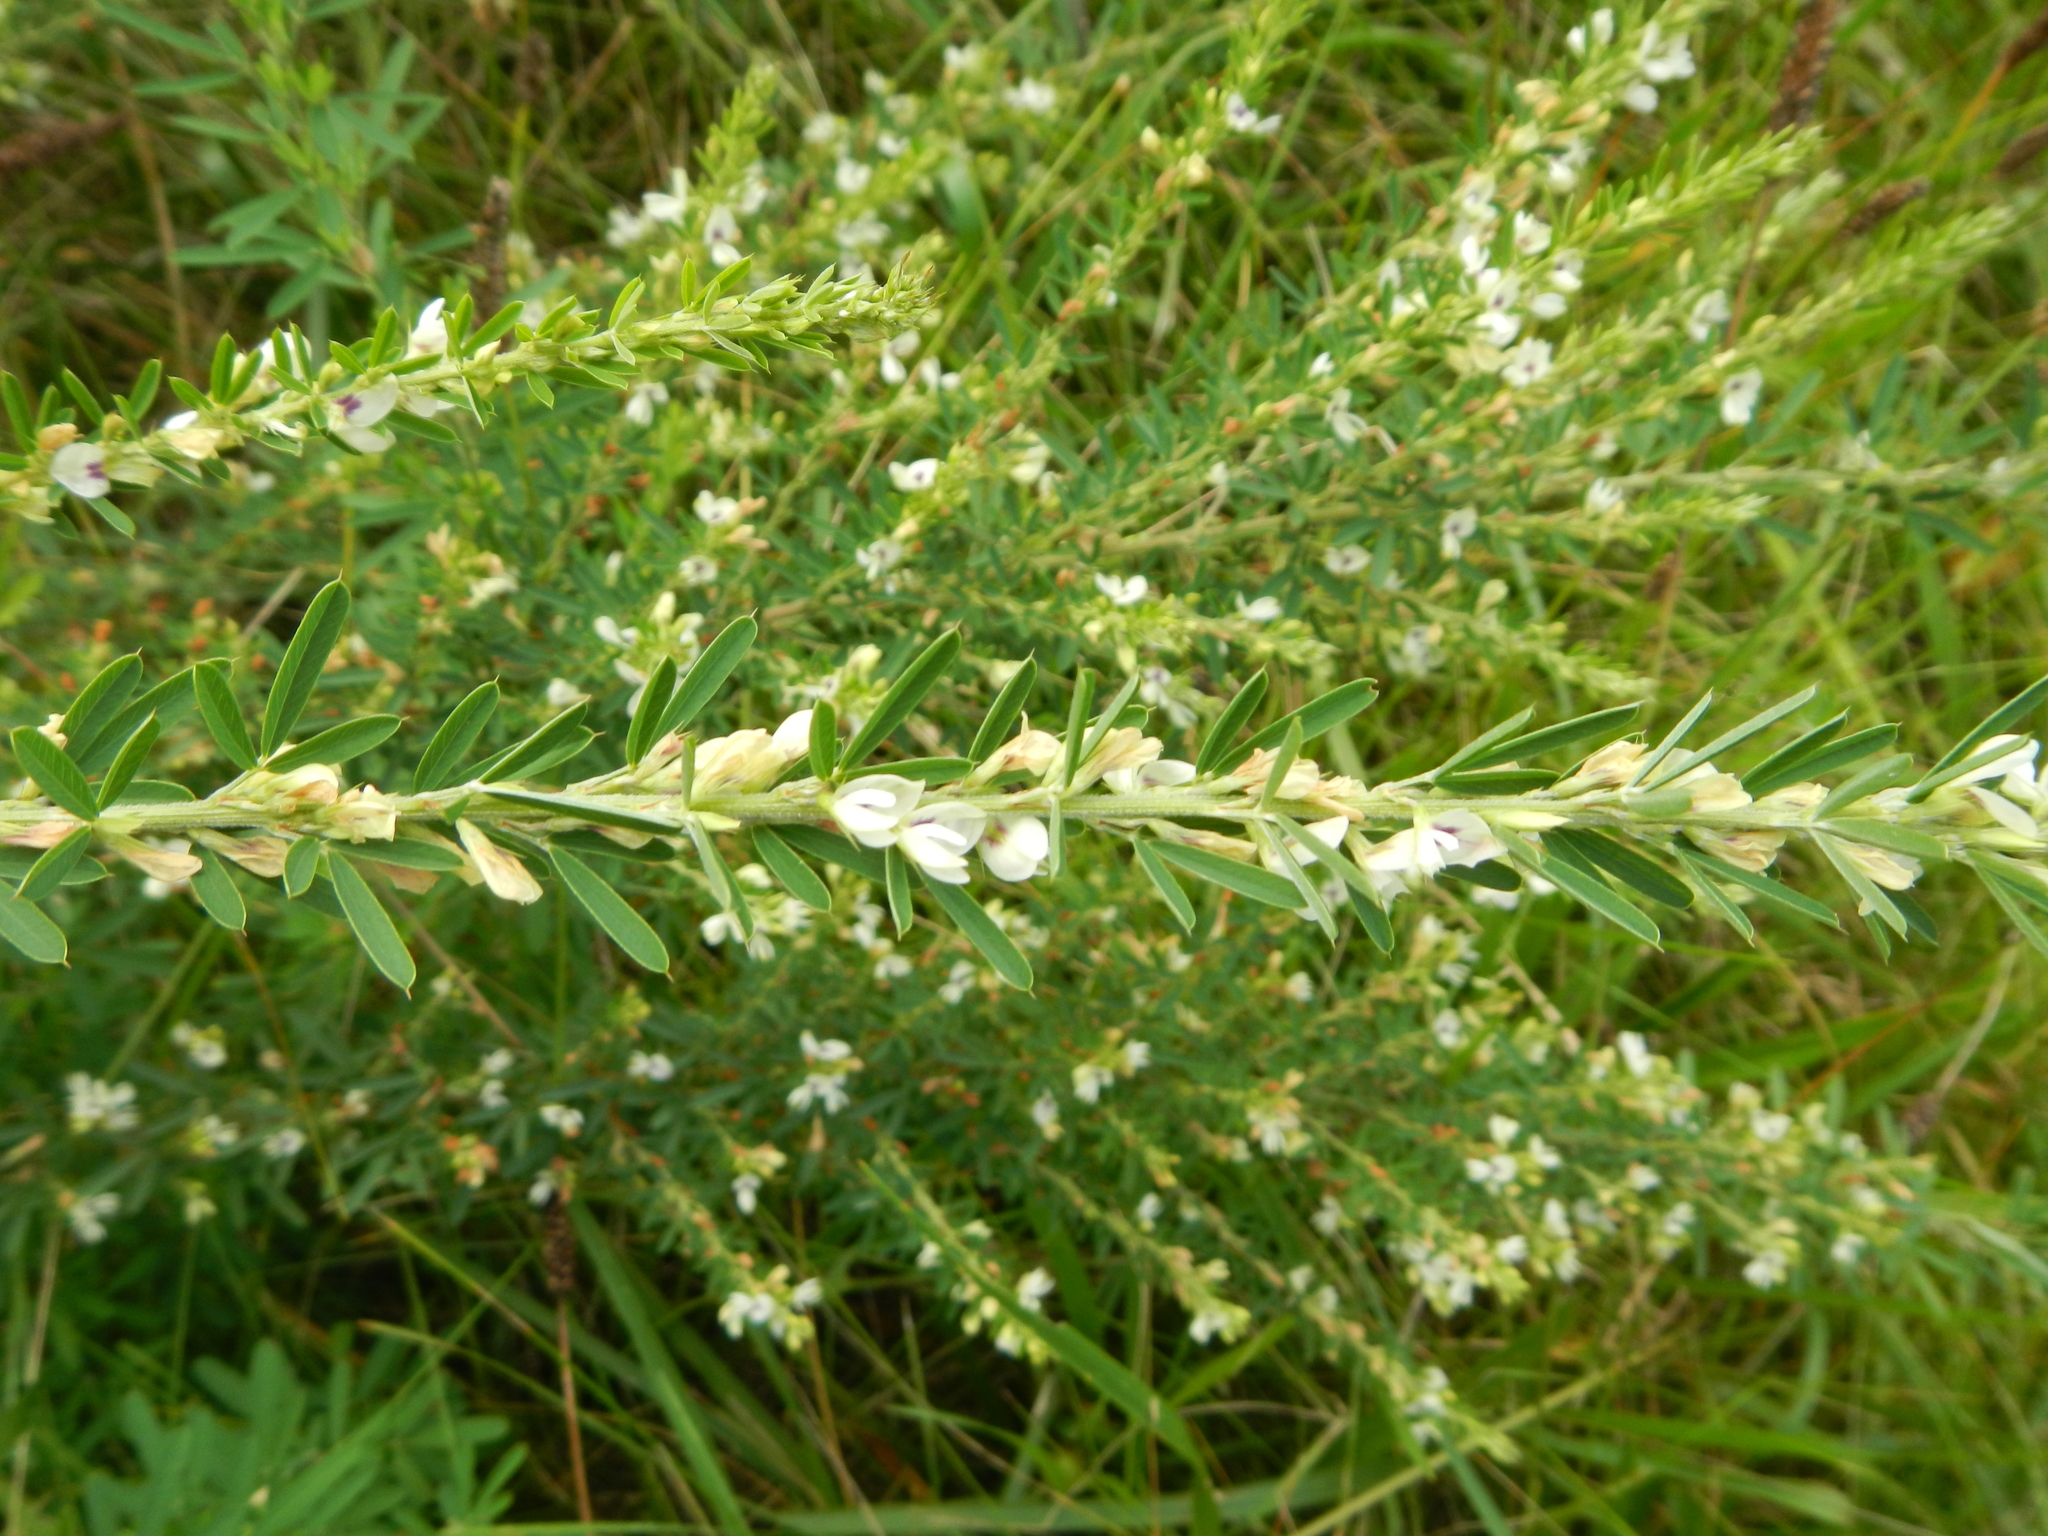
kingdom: Plantae
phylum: Tracheophyta
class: Magnoliopsida
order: Fabales
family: Fabaceae
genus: Lespedeza
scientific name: Lespedeza cuneata
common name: Chinese bush-clover
